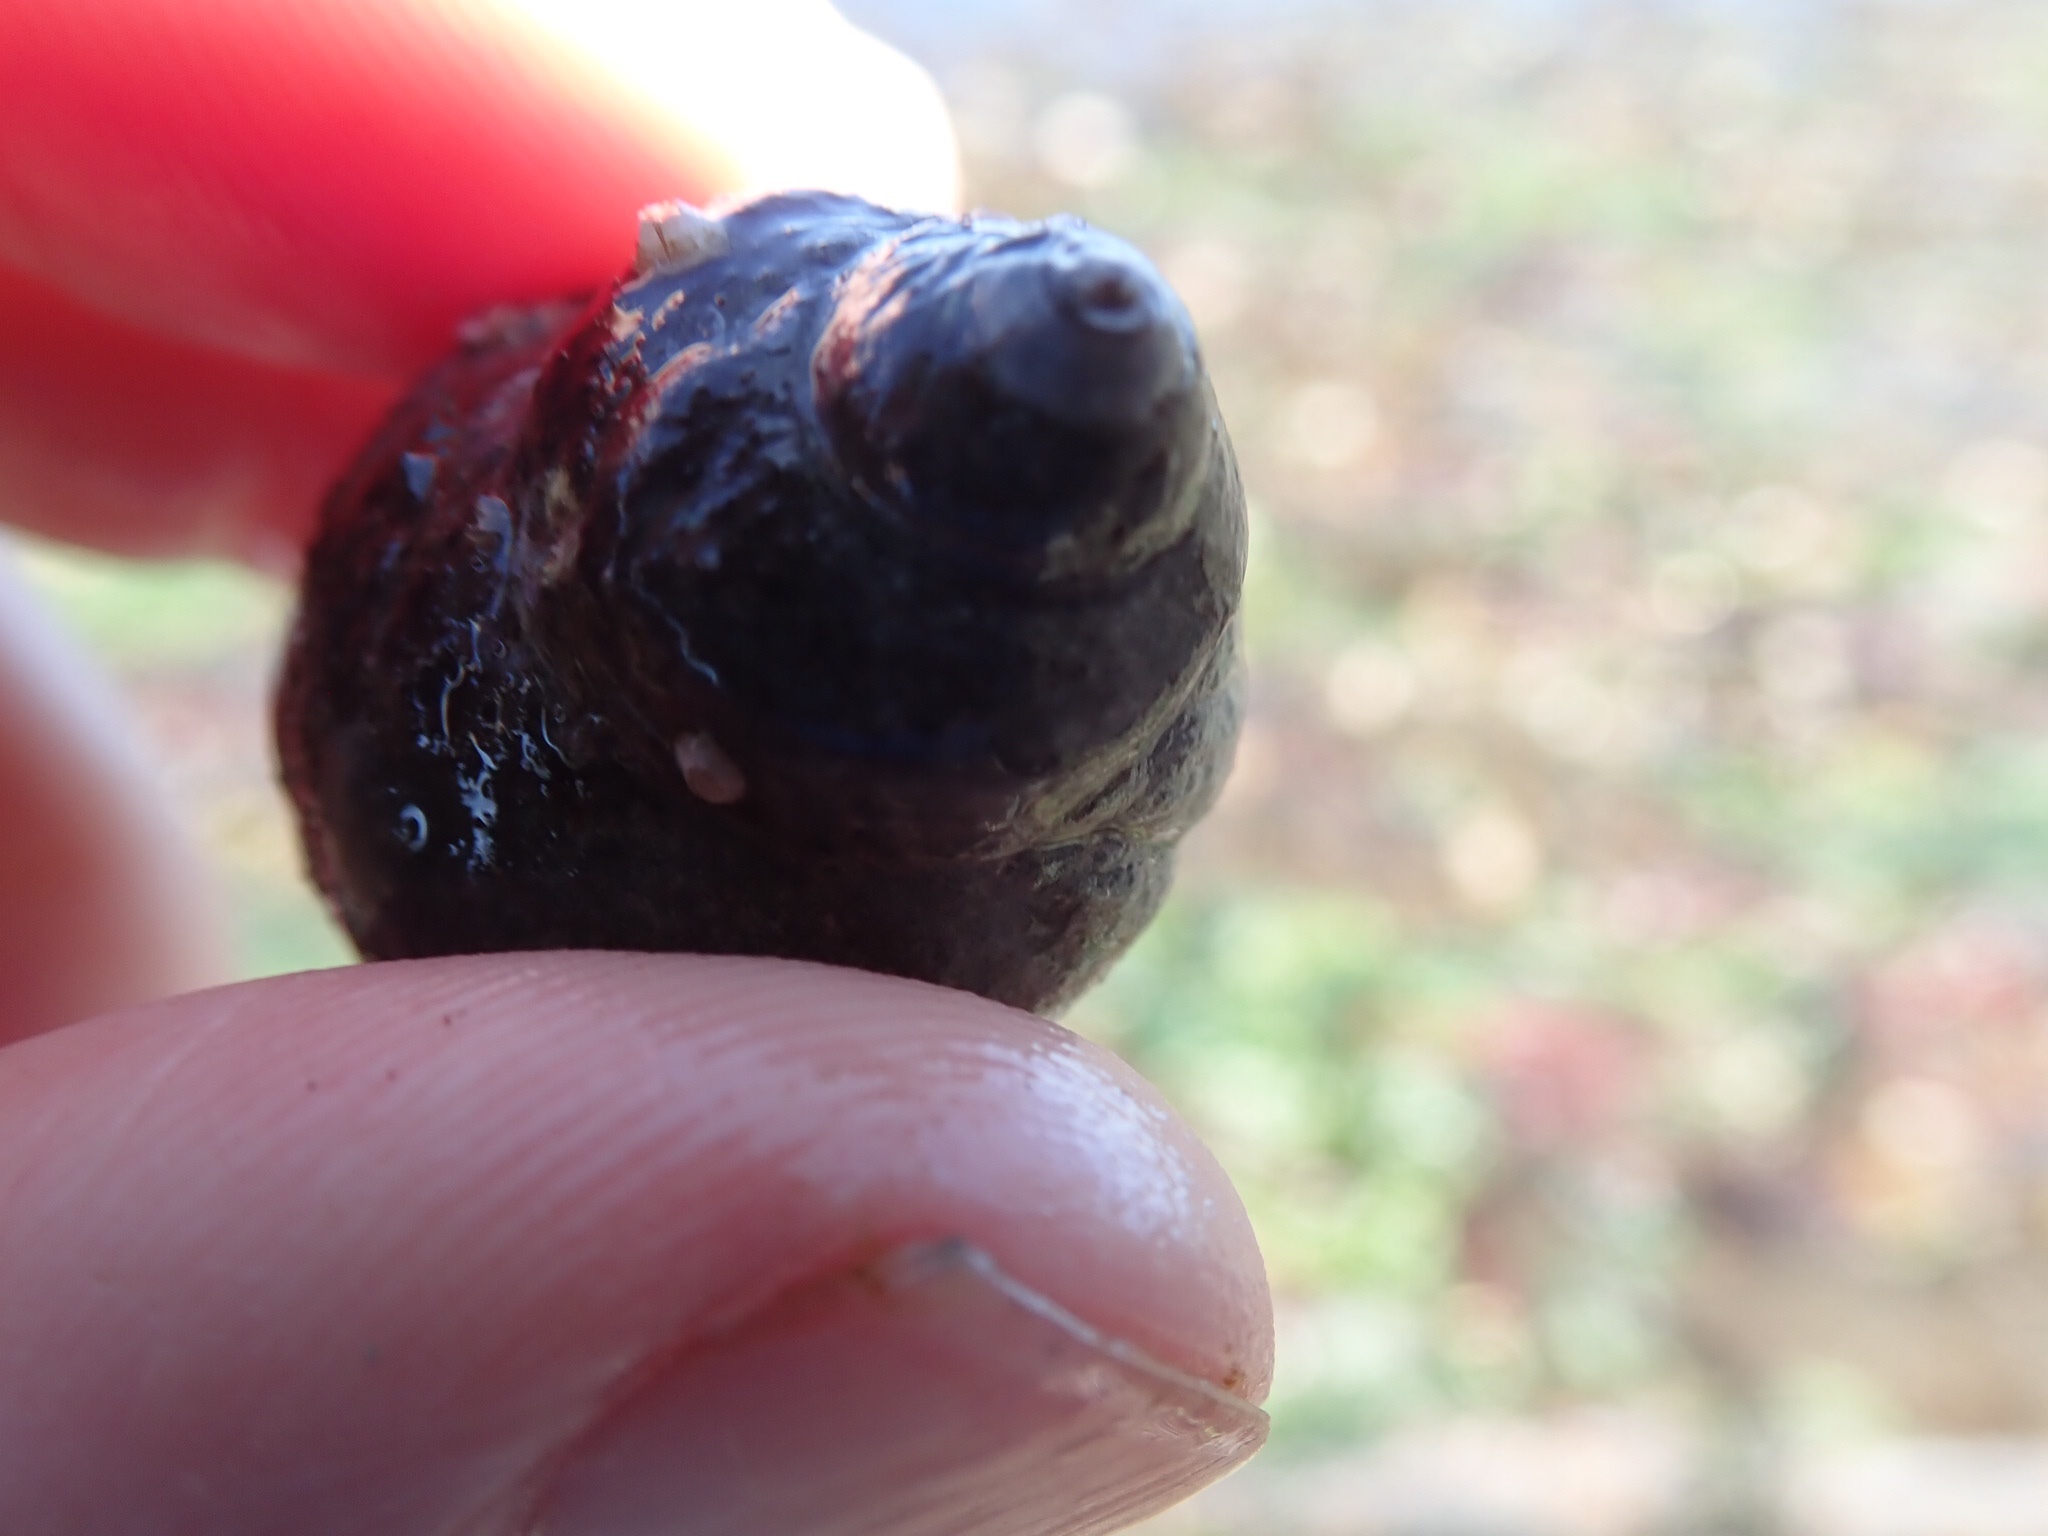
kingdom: Animalia
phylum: Mollusca
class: Gastropoda
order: Neogastropoda
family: Muricidae
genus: Nucella
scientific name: Nucella lamellosa
